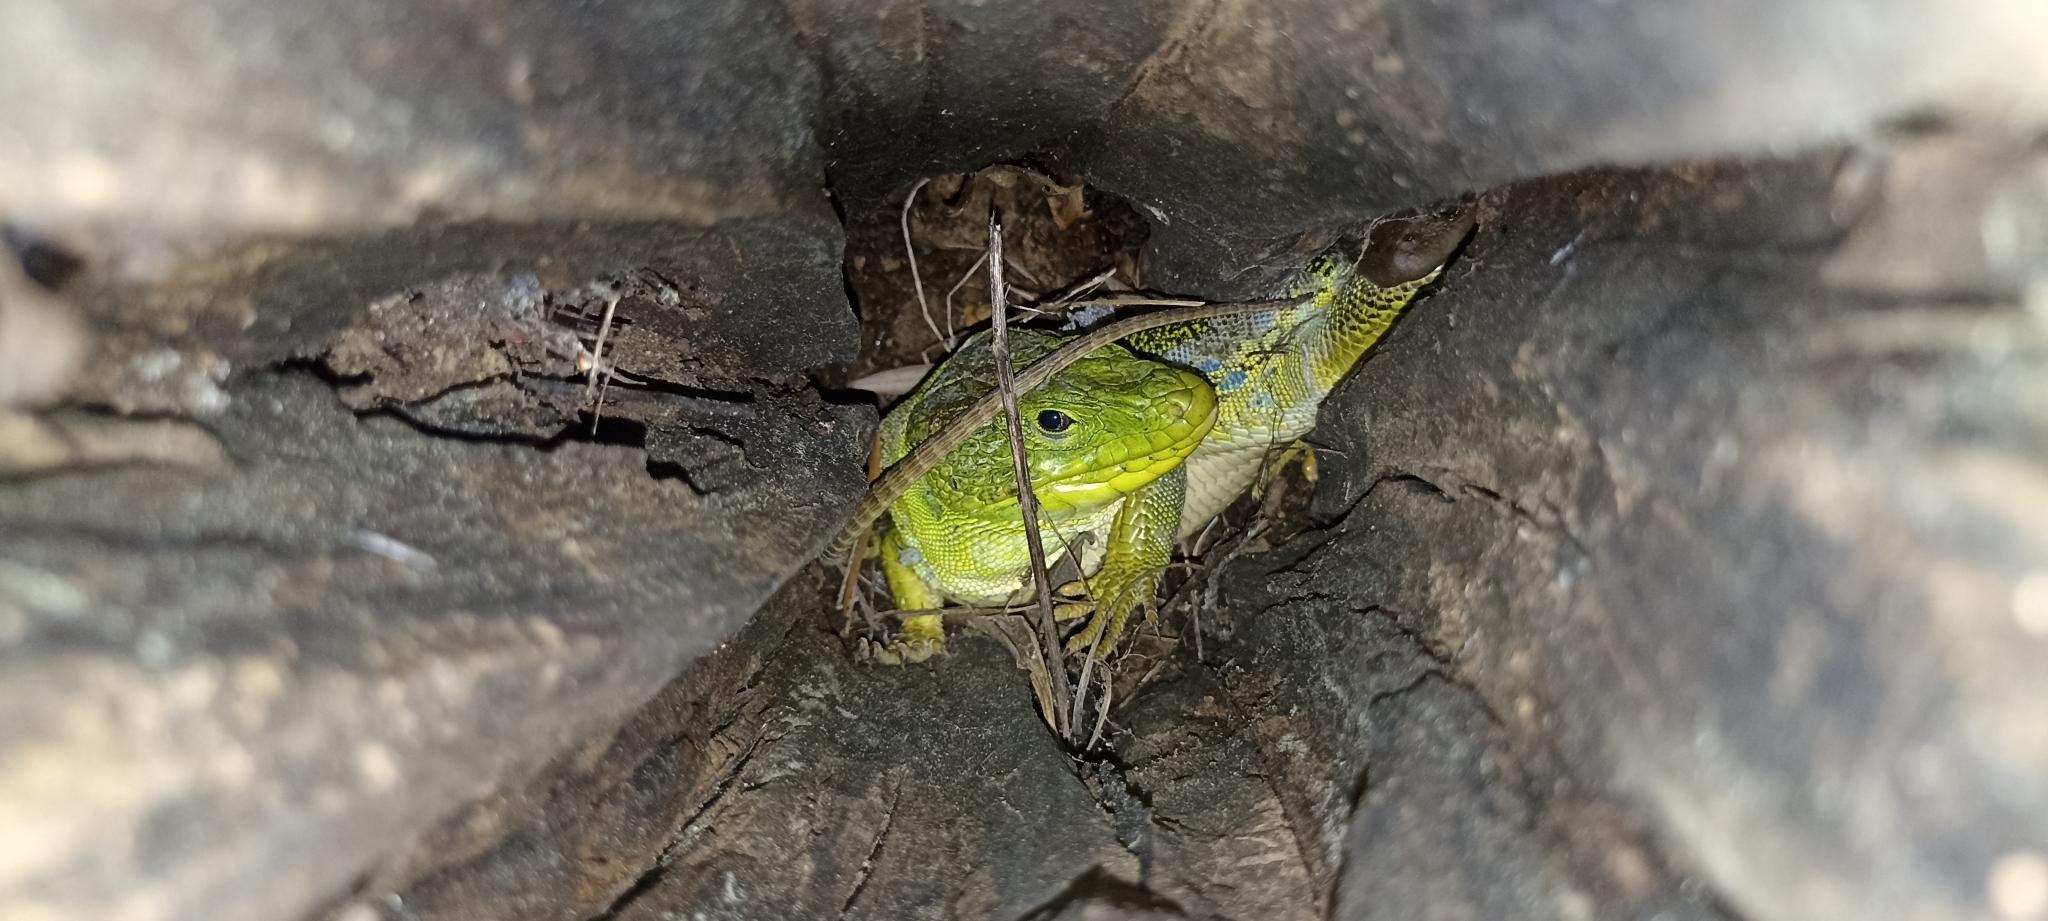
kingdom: Animalia
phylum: Chordata
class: Squamata
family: Lacertidae
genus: Timon
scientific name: Timon lepidus
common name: Ocellated lizard
